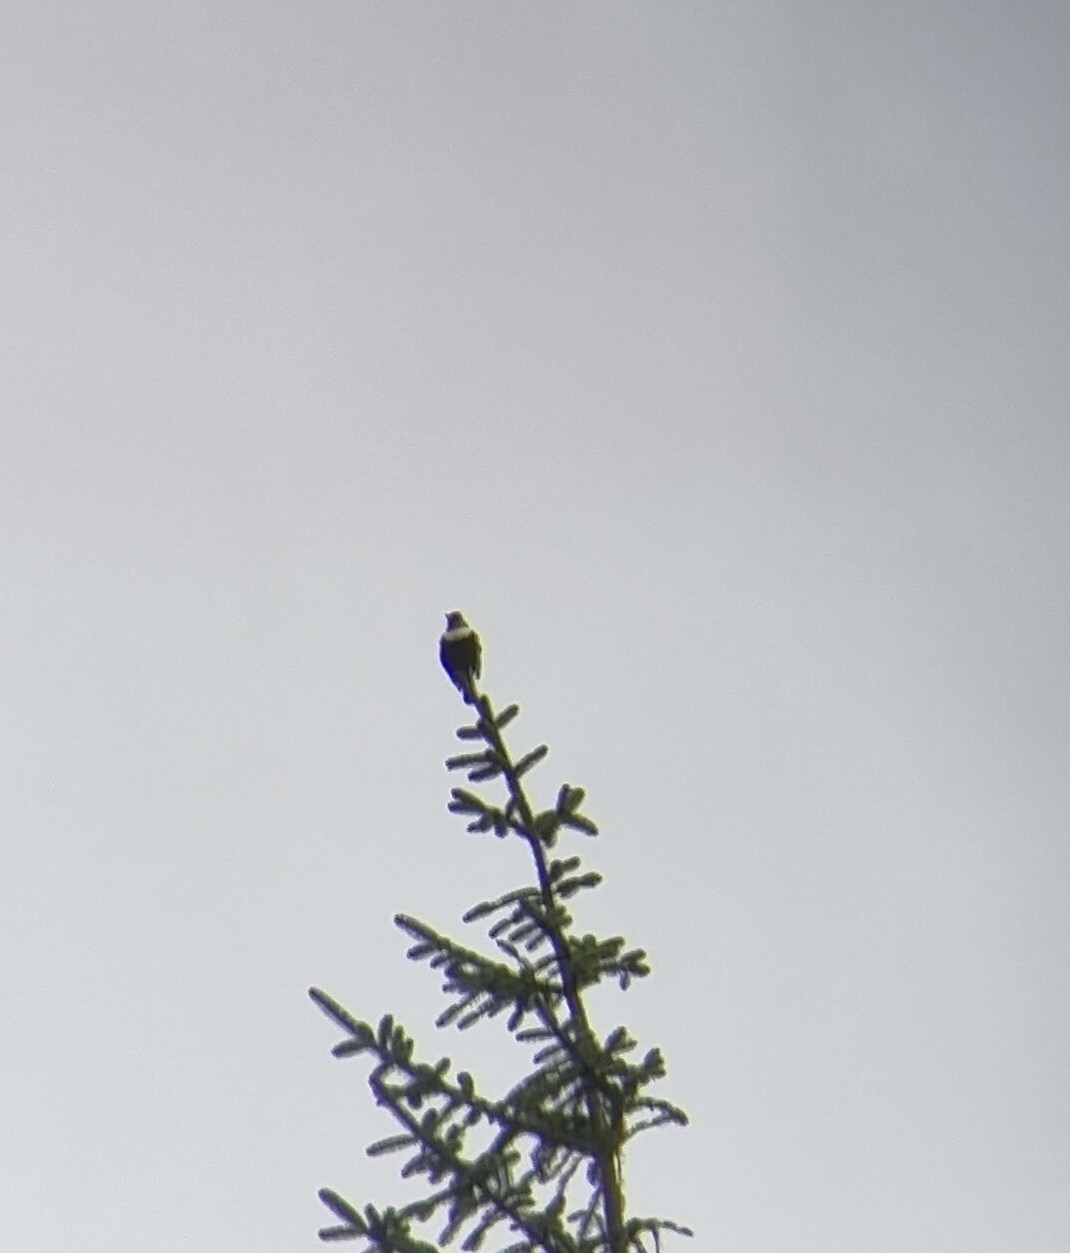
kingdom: Animalia
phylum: Chordata
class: Aves
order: Passeriformes
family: Turdidae
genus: Turdus
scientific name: Turdus torquatus
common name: Ring ouzel
